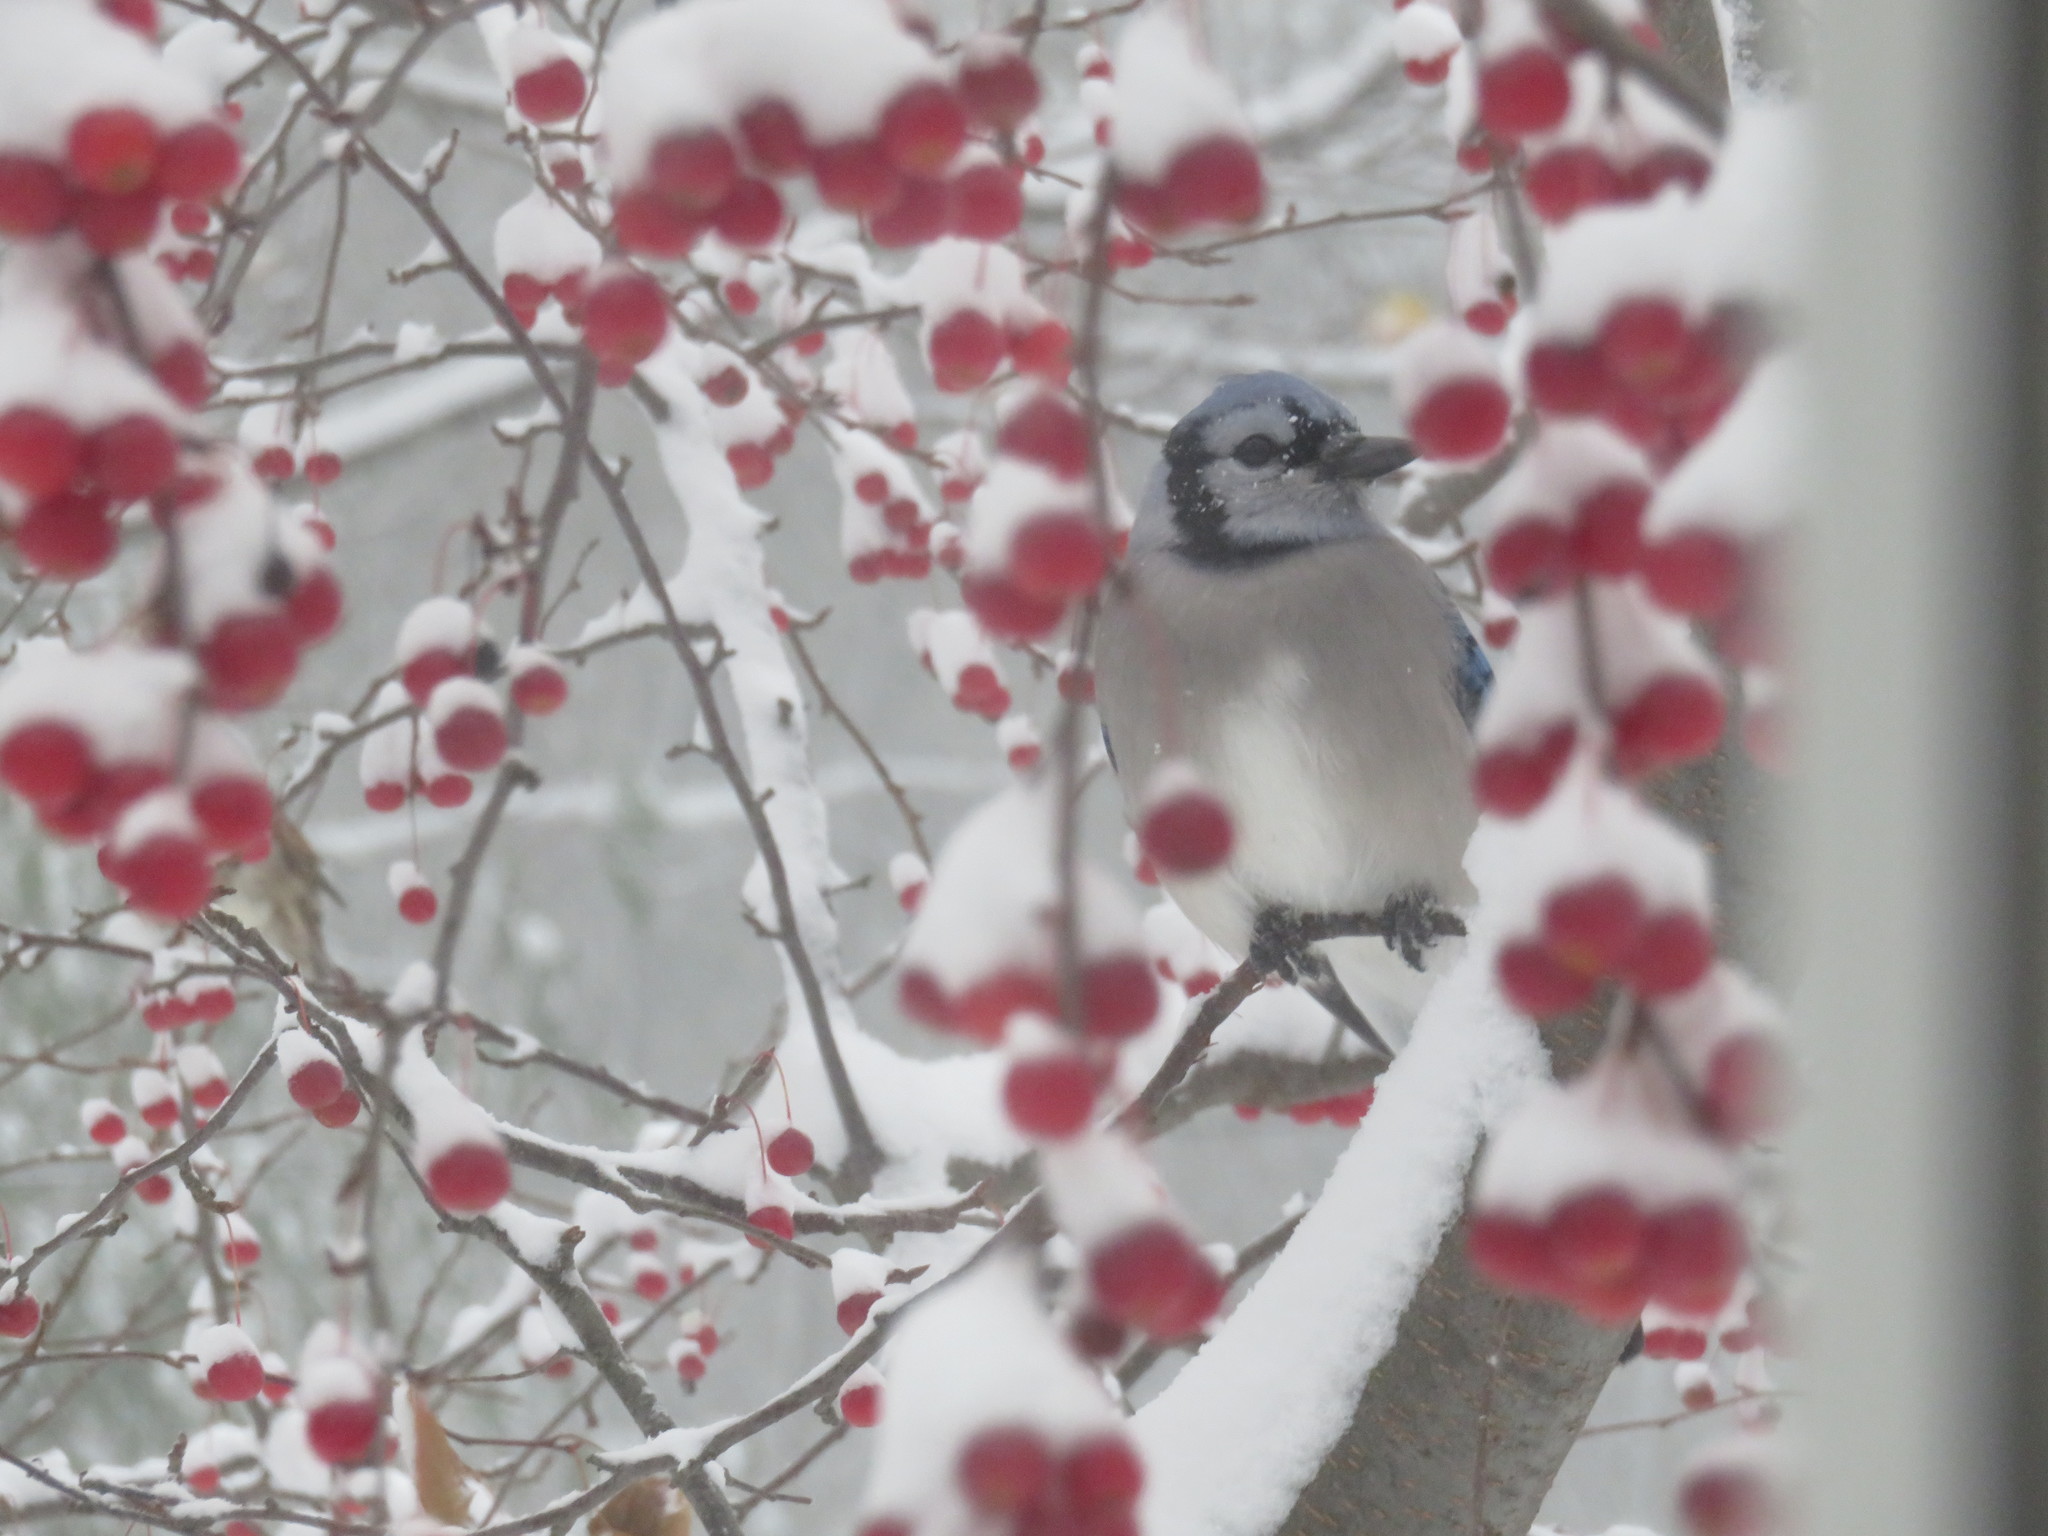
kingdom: Animalia
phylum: Chordata
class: Aves
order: Passeriformes
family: Corvidae
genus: Cyanocitta
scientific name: Cyanocitta cristata
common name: Blue jay
